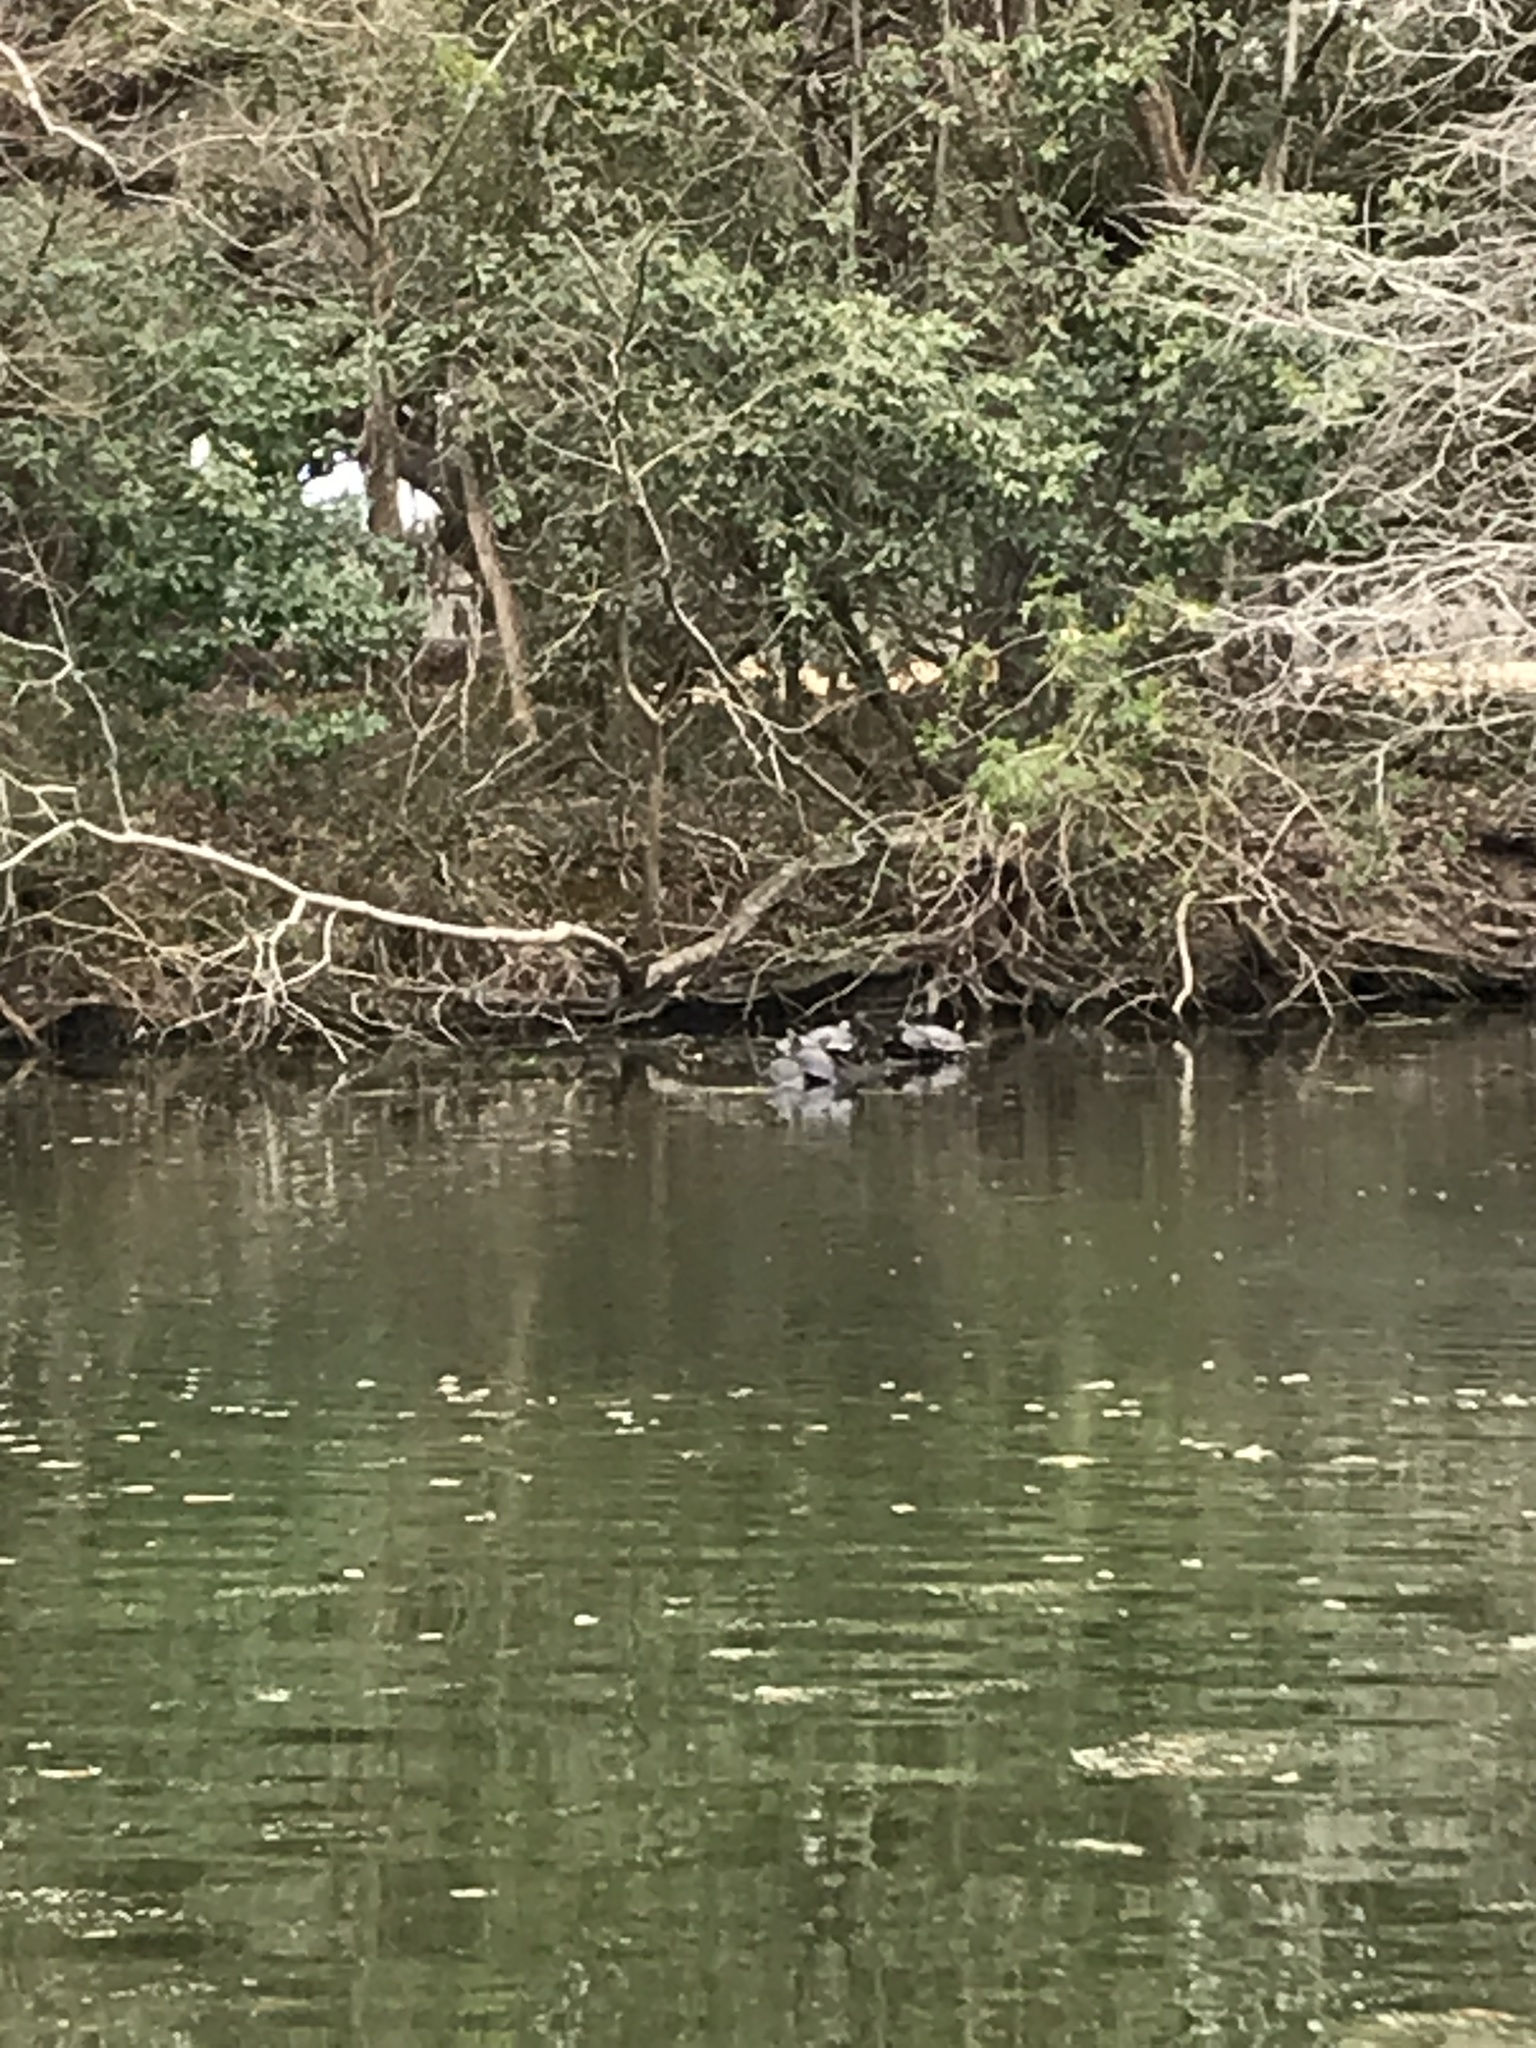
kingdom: Animalia
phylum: Chordata
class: Testudines
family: Emydidae
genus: Trachemys
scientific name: Trachemys scripta
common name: Slider
